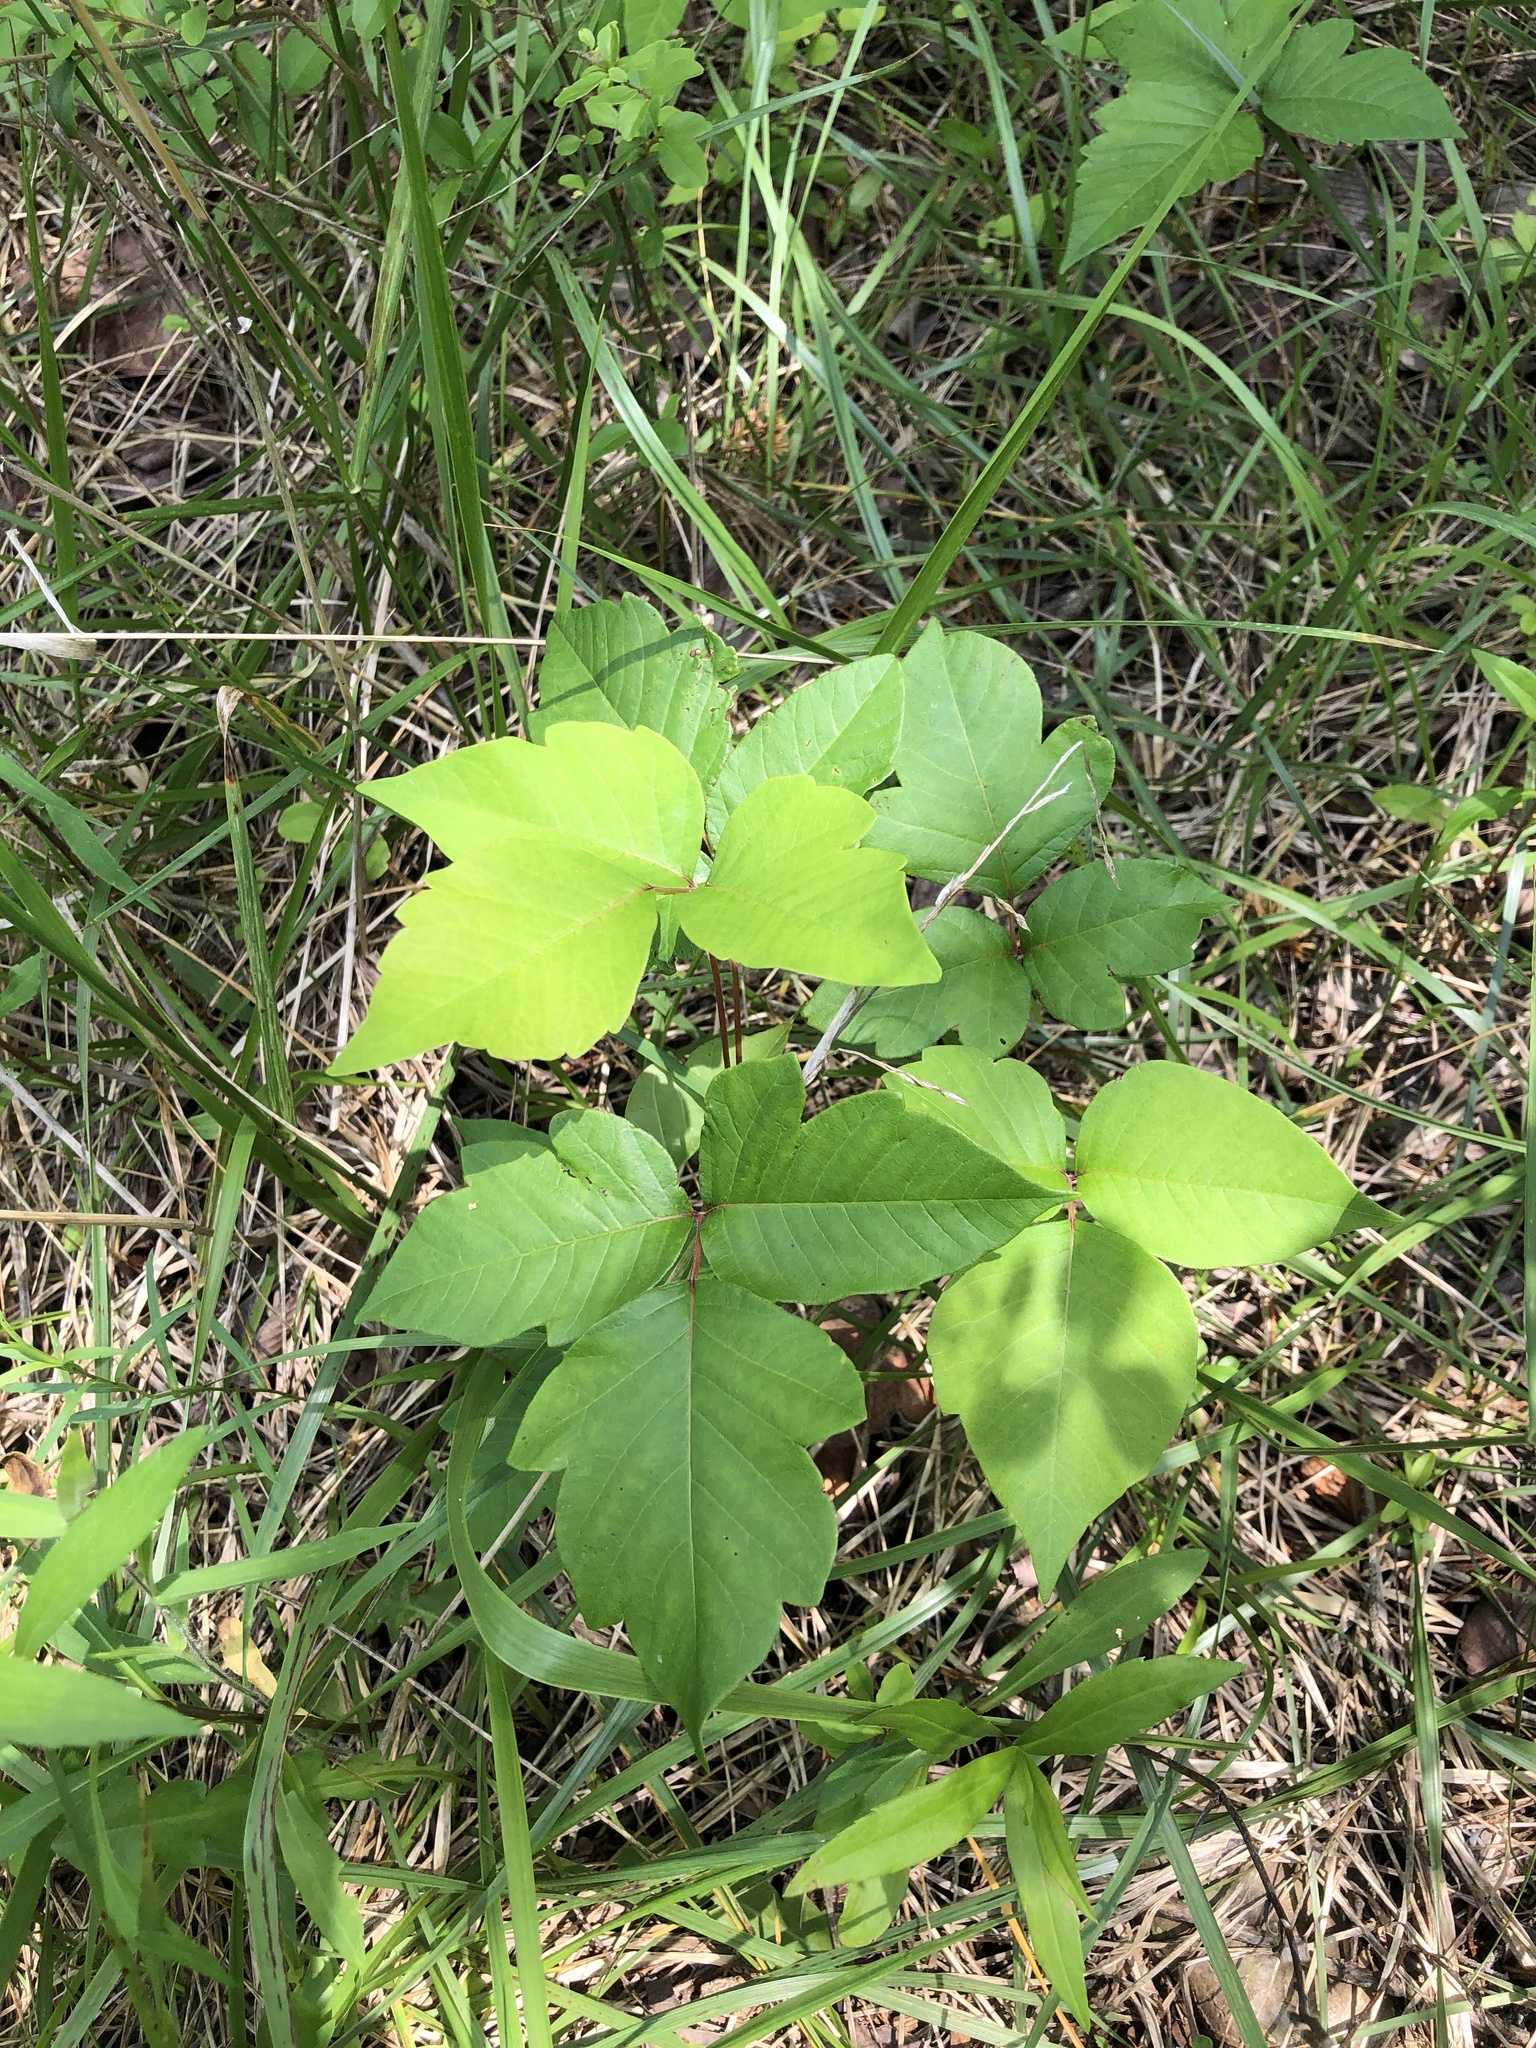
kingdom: Plantae
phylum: Tracheophyta
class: Magnoliopsida
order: Sapindales
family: Anacardiaceae
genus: Toxicodendron
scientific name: Toxicodendron radicans
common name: Poison ivy
